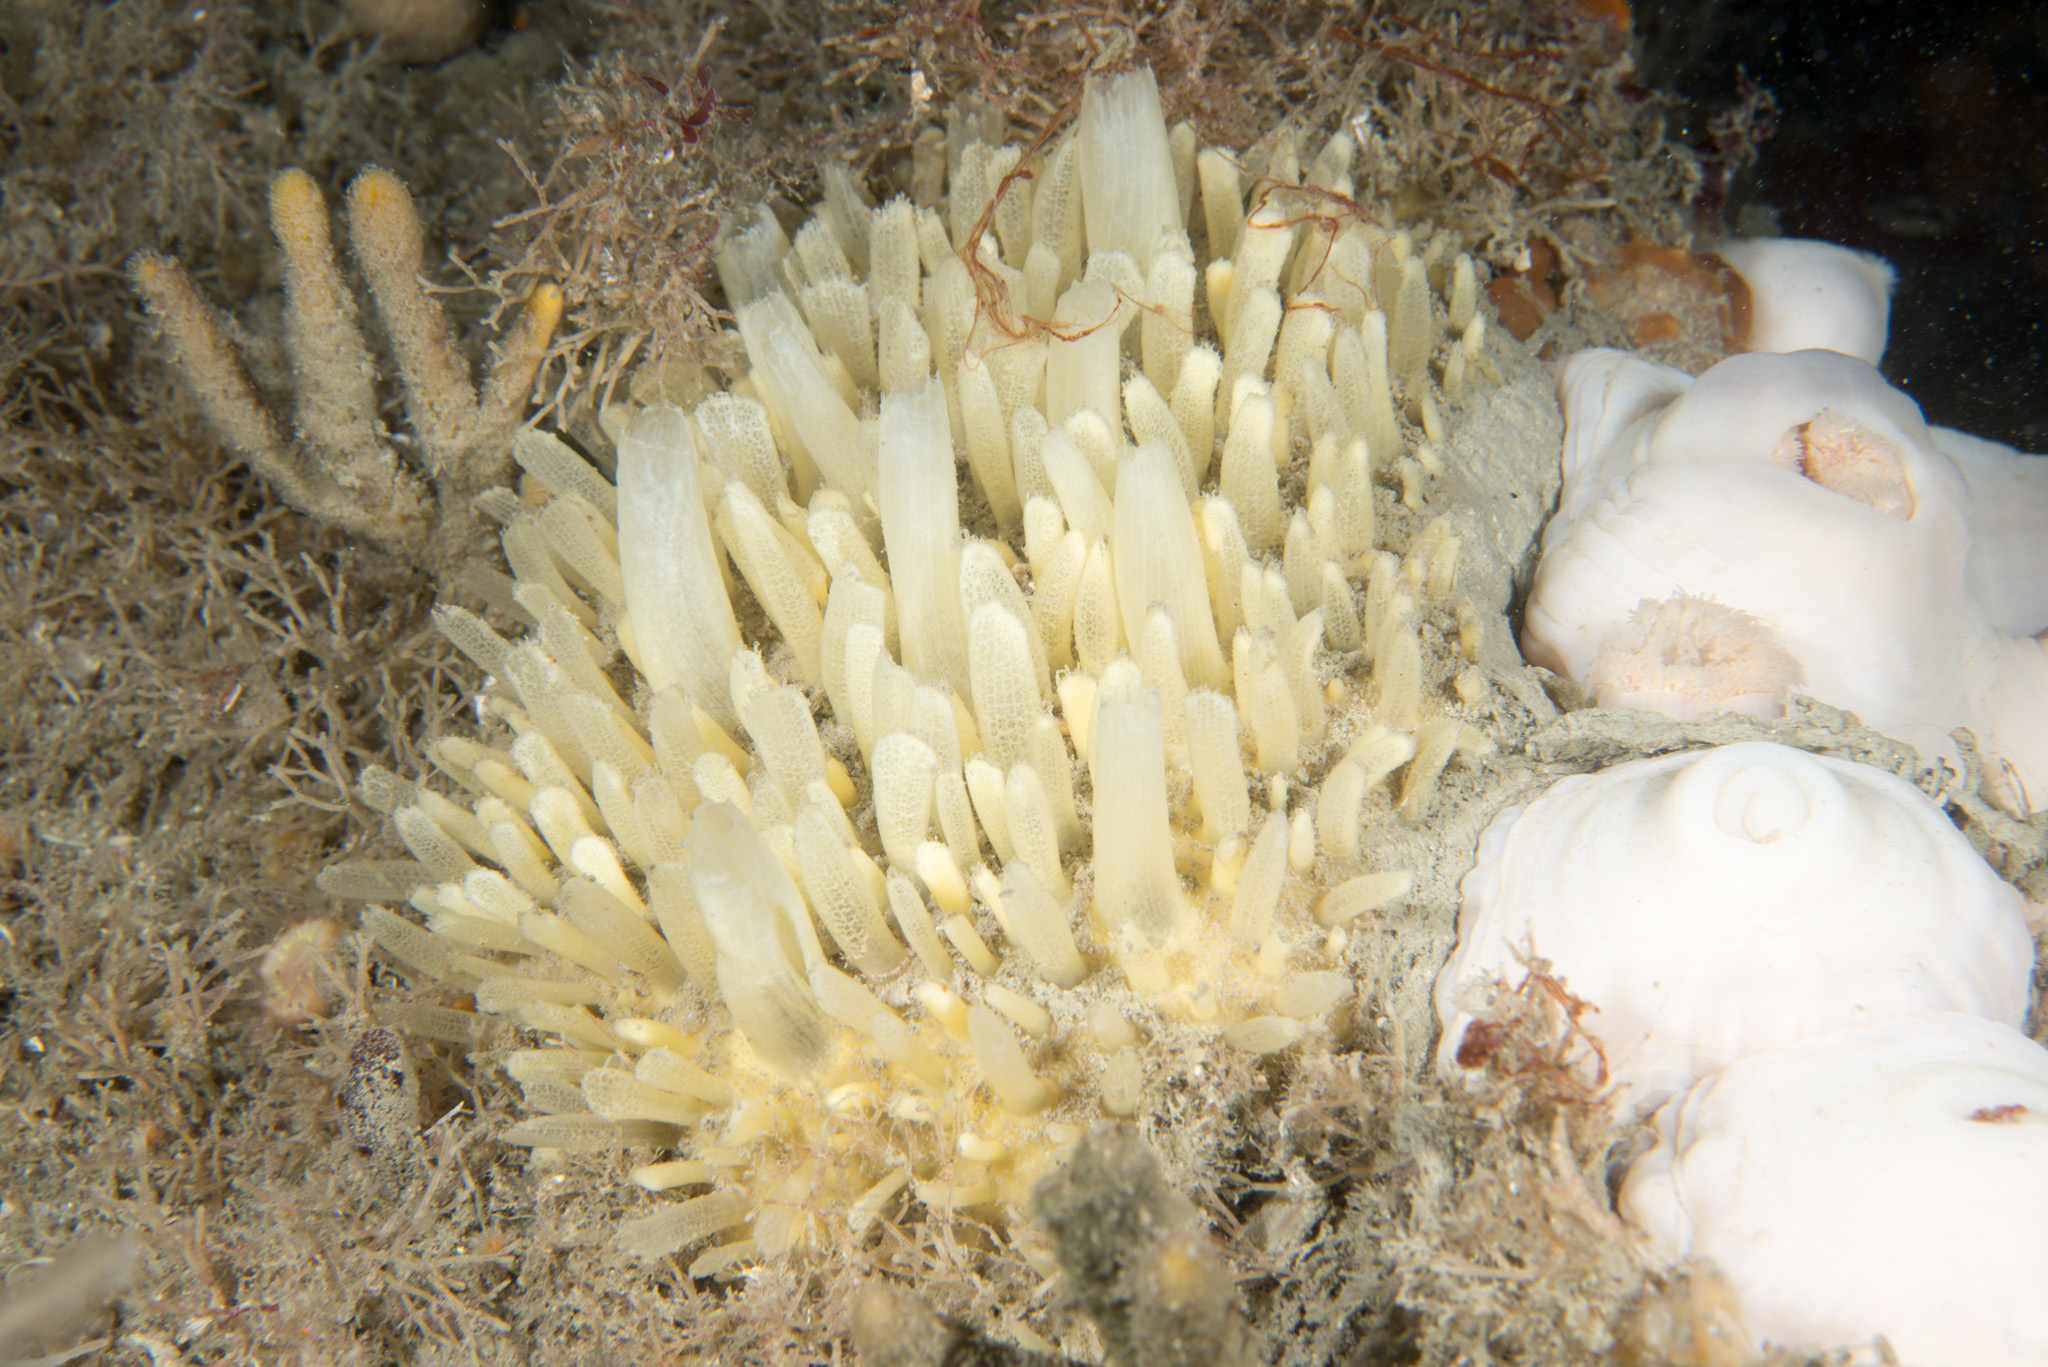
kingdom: Animalia
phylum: Porifera
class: Demospongiae
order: Polymastiida
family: Polymastiidae
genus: Polymastia
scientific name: Polymastia penicillus
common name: Chimney sponge
